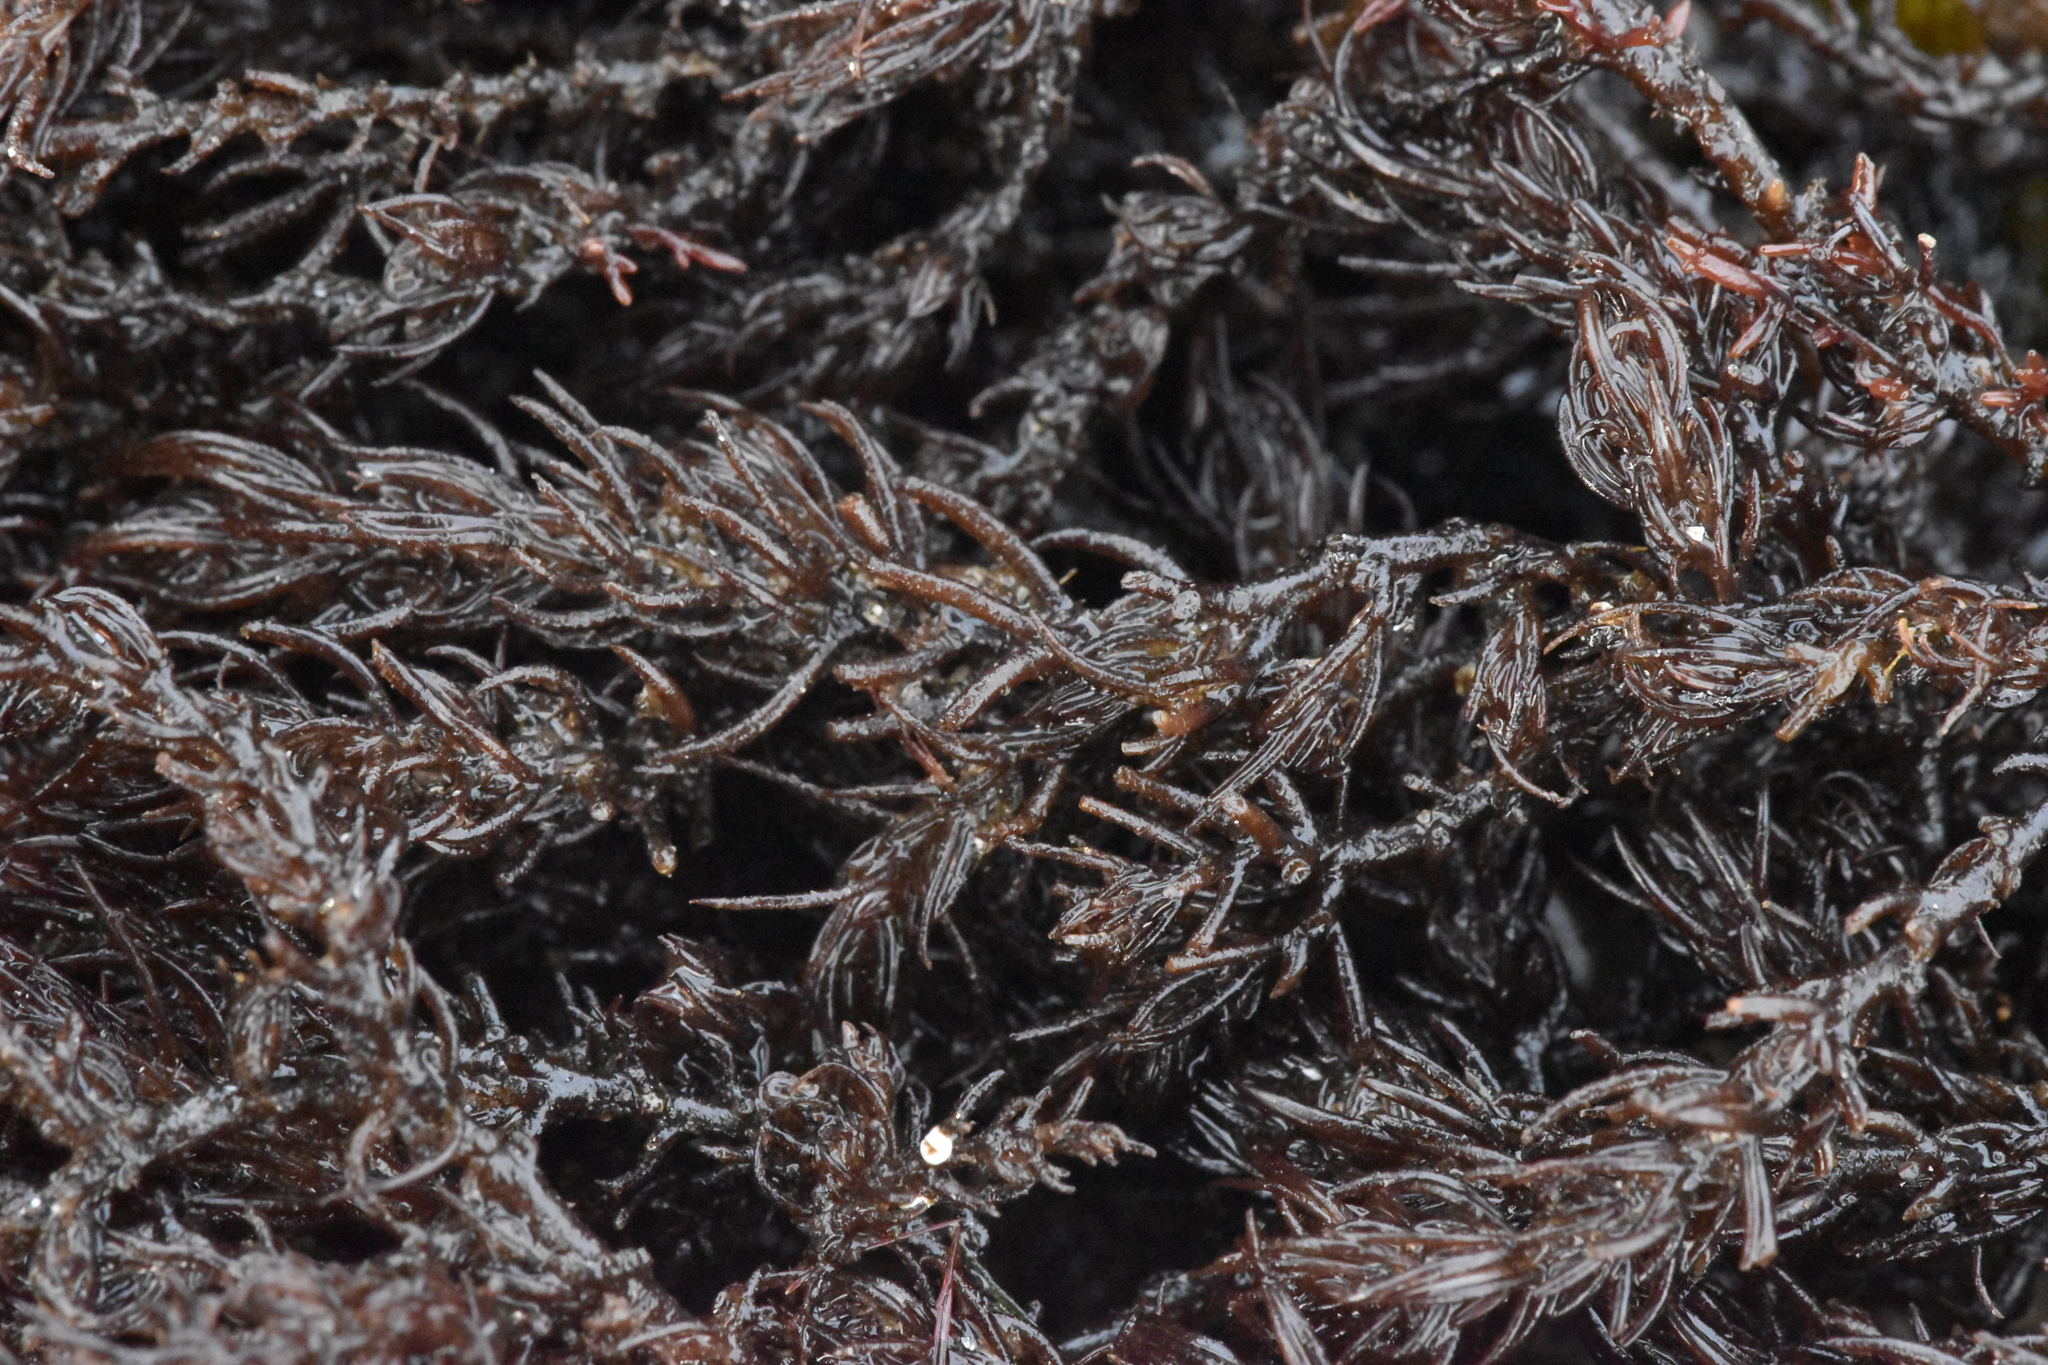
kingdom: Plantae
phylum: Rhodophyta
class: Florideophyceae
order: Ceramiales
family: Rhodomelaceae
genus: Neorhodomela
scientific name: Neorhodomela larix
